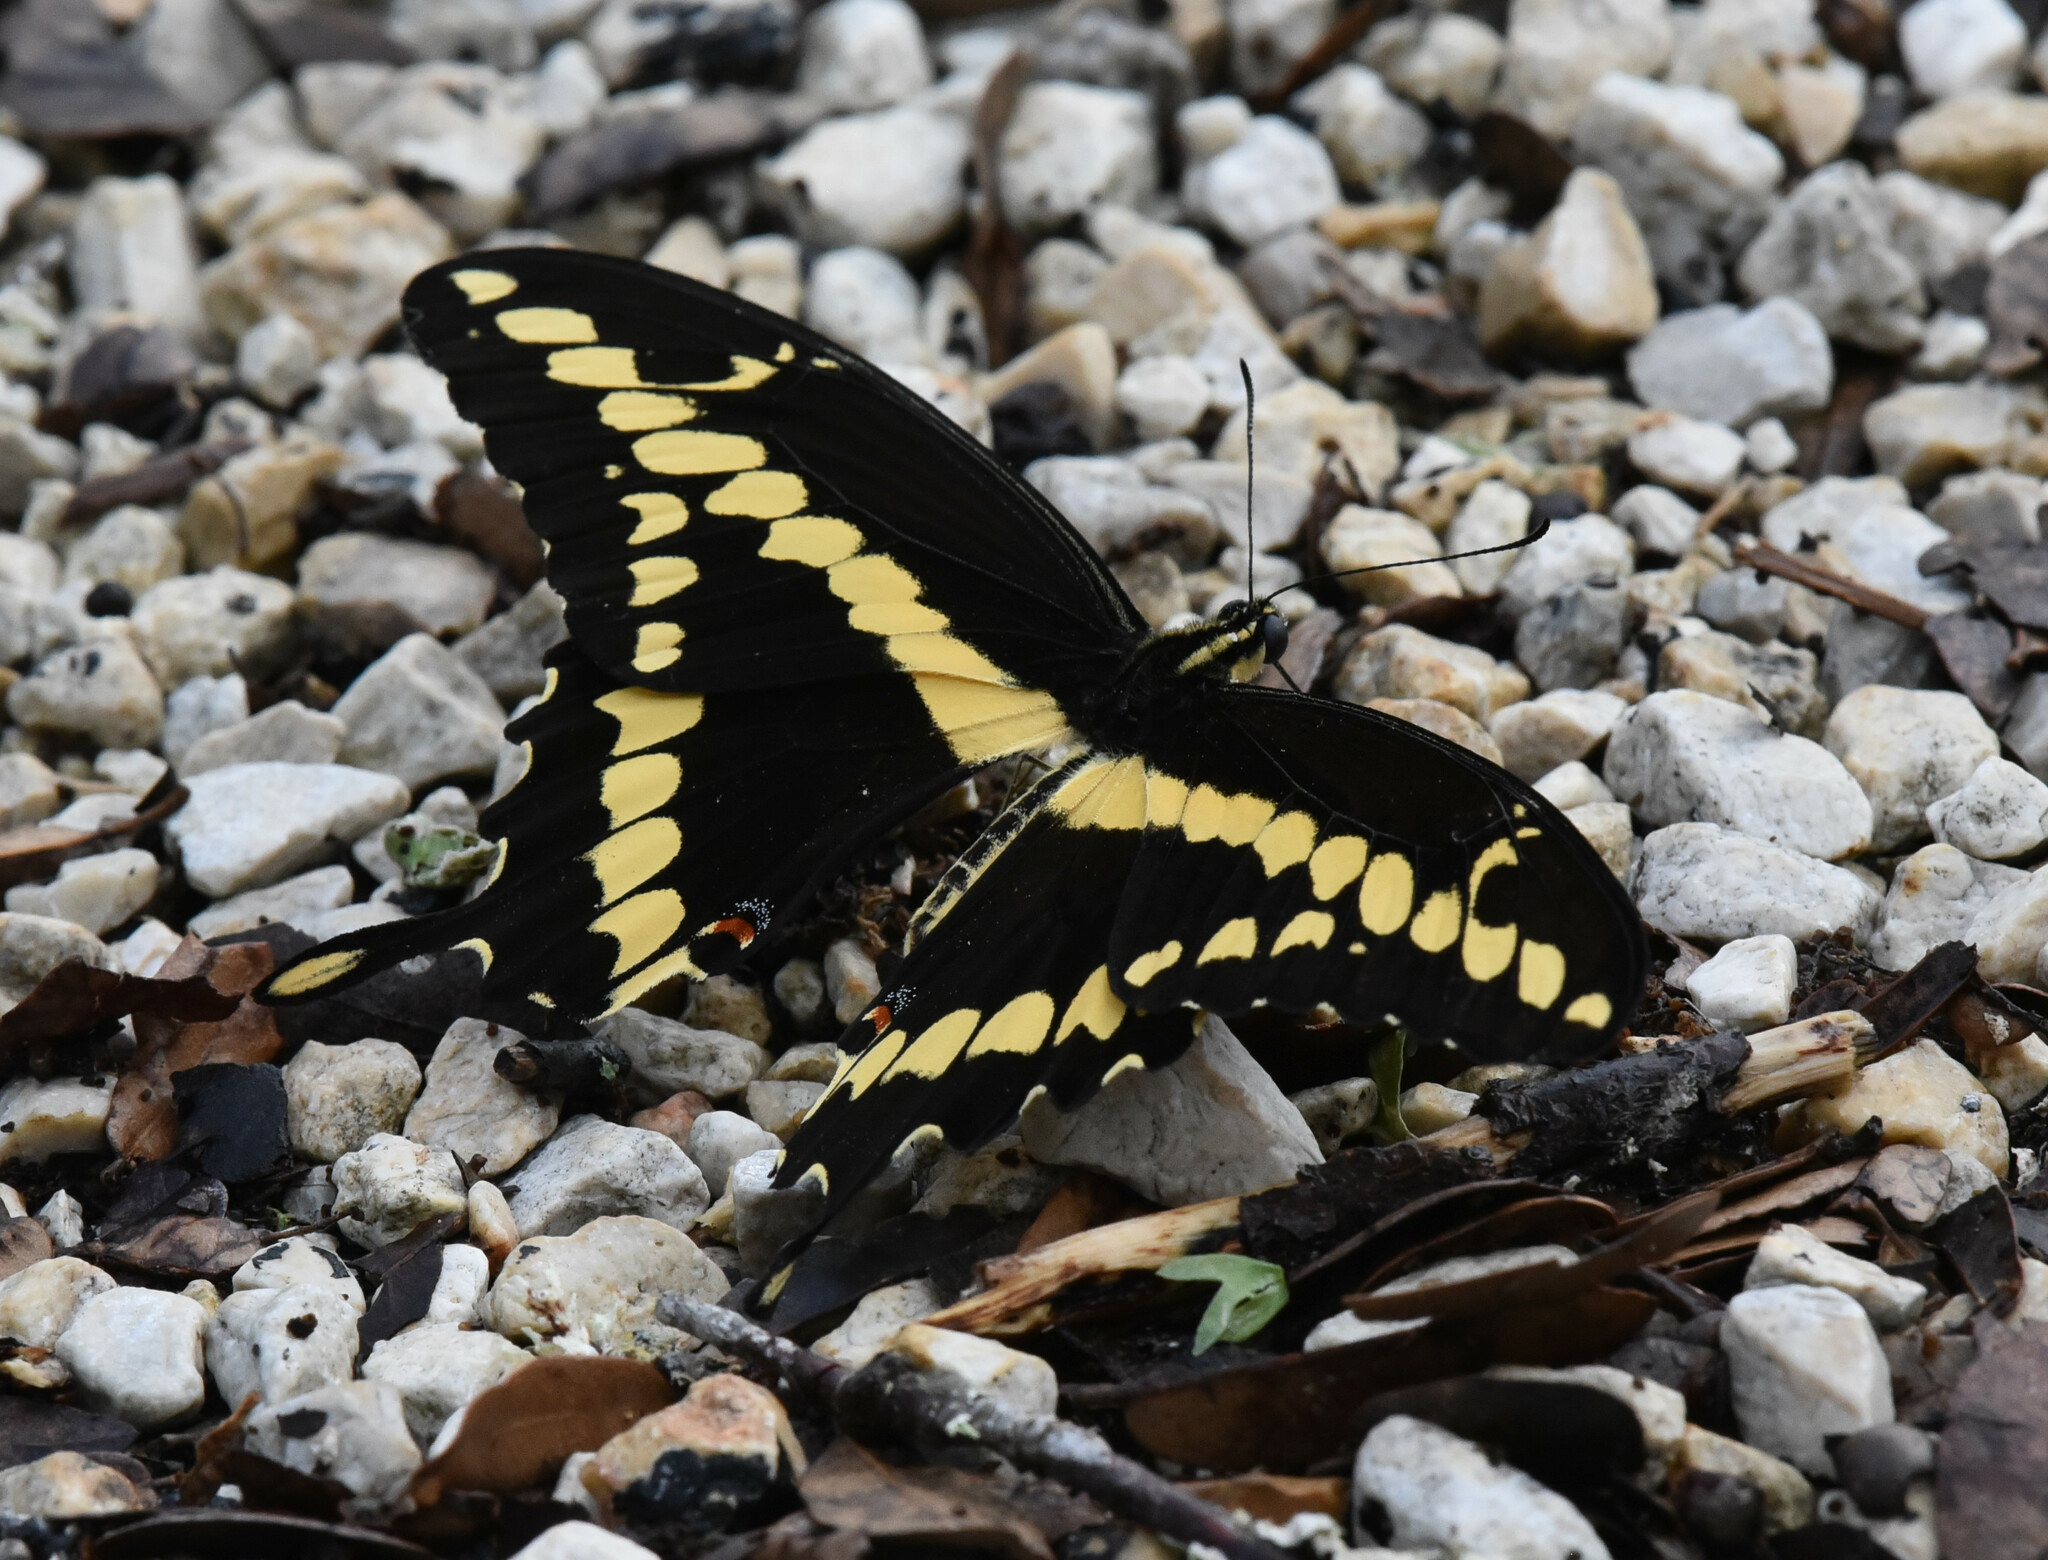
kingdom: Animalia
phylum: Arthropoda
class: Insecta
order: Lepidoptera
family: Papilionidae
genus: Papilio
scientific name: Papilio rumiko
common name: Western giant swallowtail
